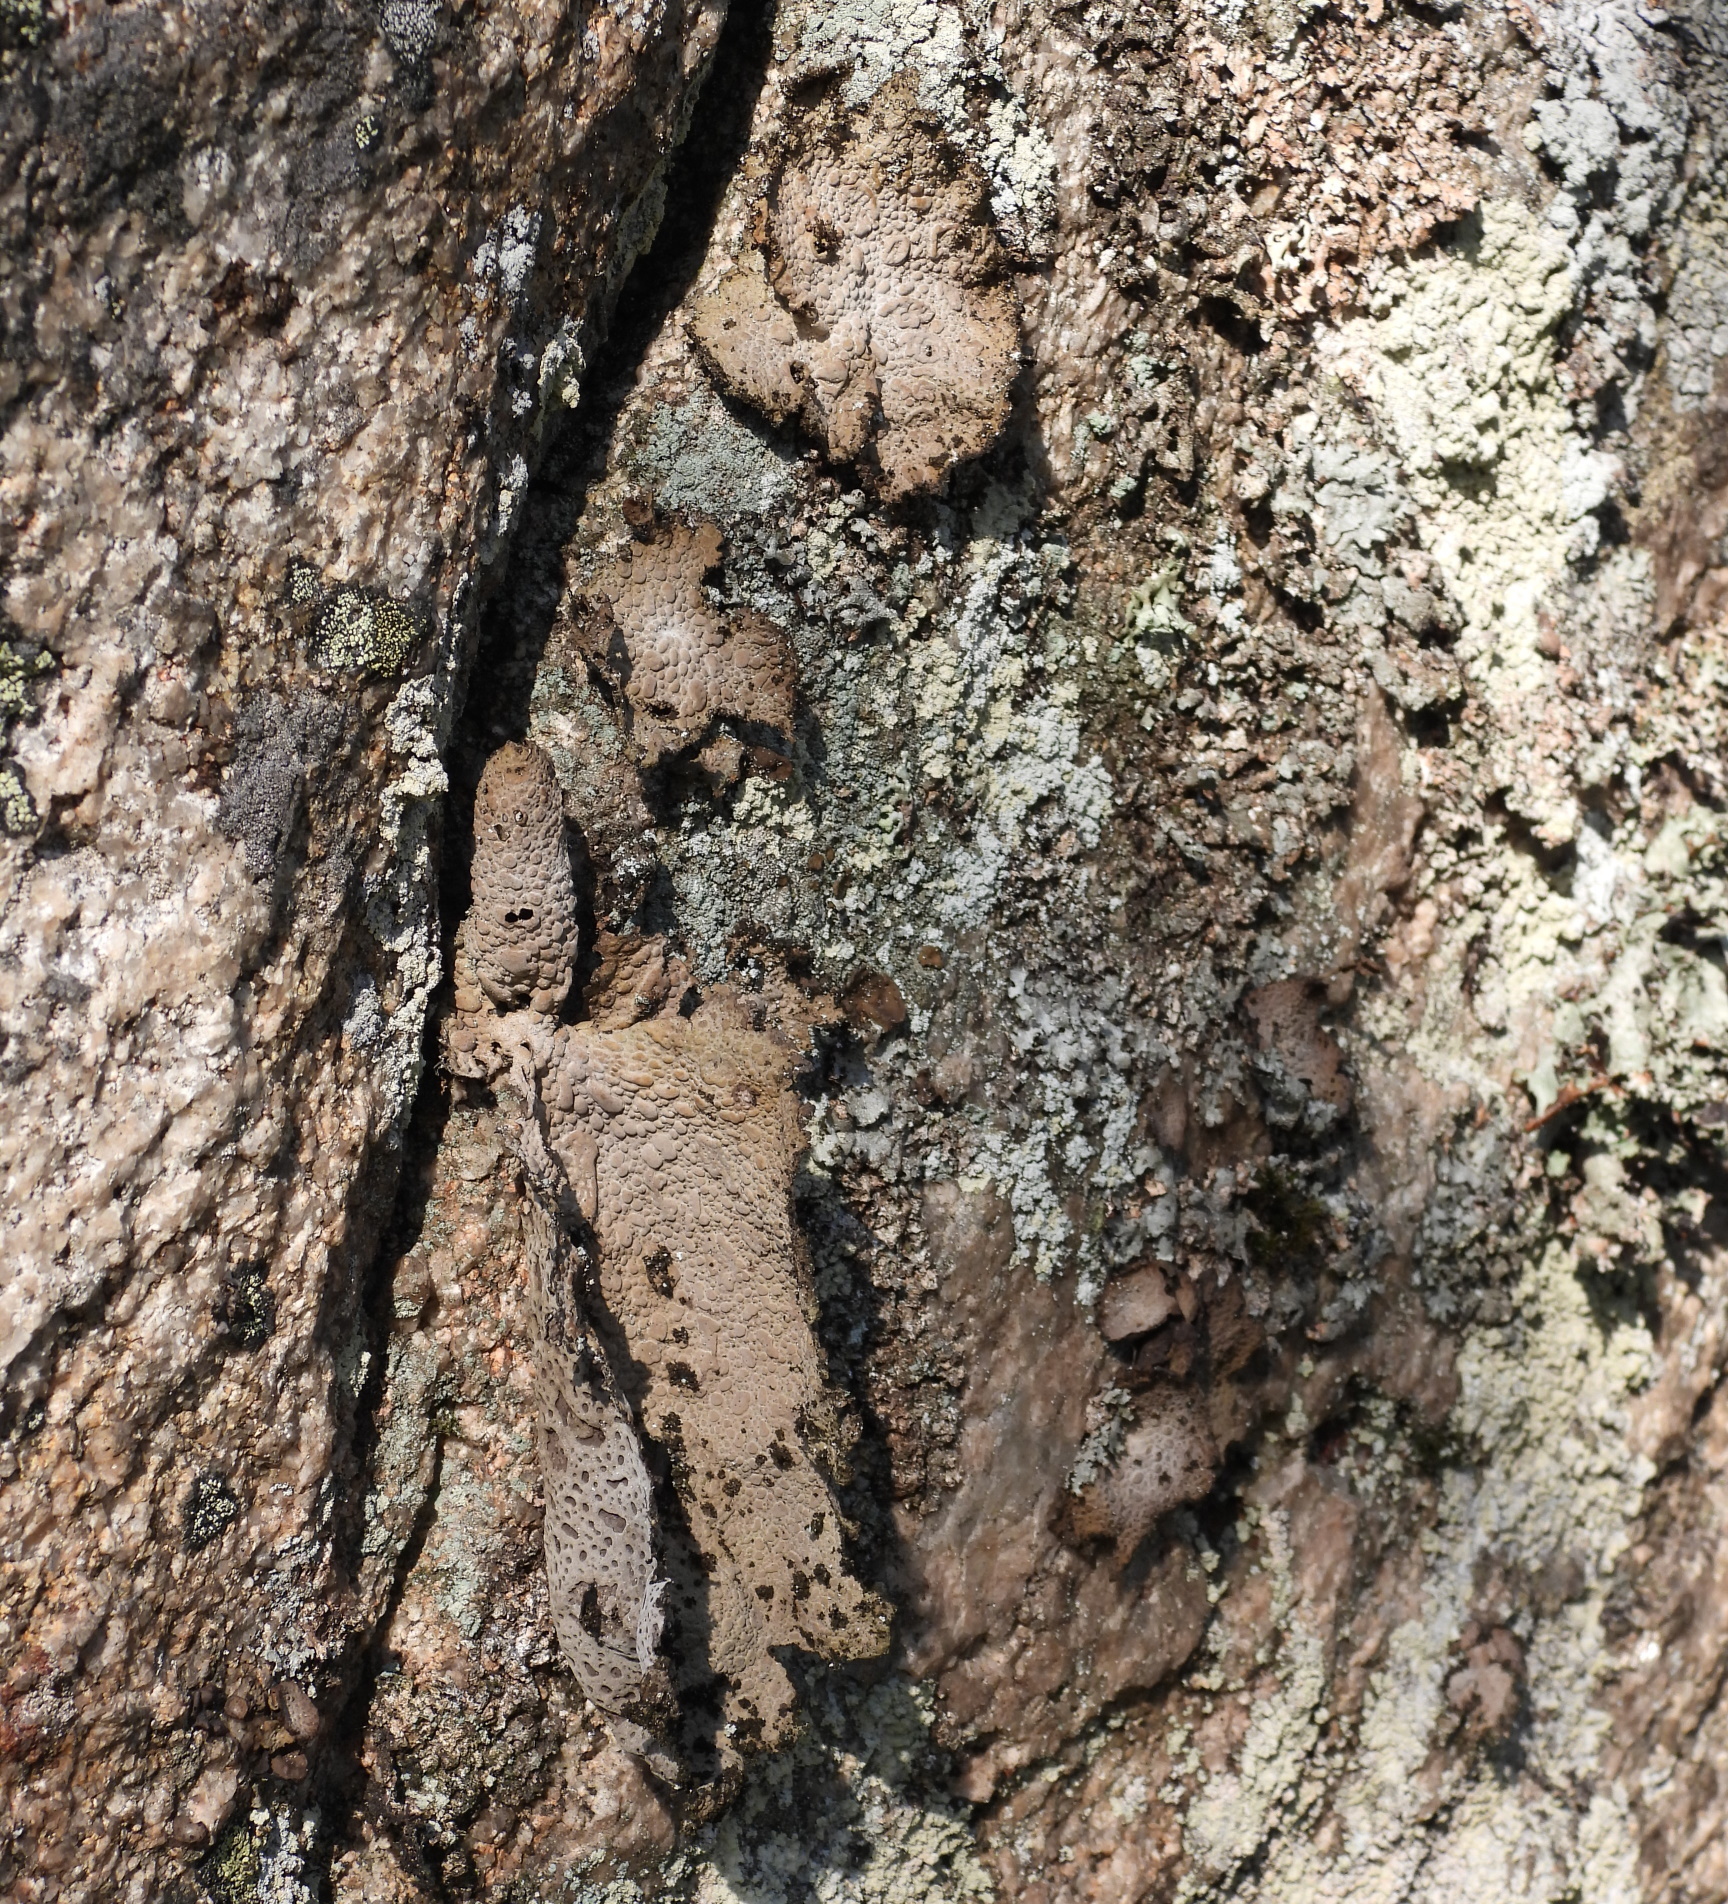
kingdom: Fungi
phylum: Ascomycota
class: Lecanoromycetes
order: Umbilicariales
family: Umbilicariaceae
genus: Lasallia
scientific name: Lasallia pustulata
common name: Blistered toadskin lichen
